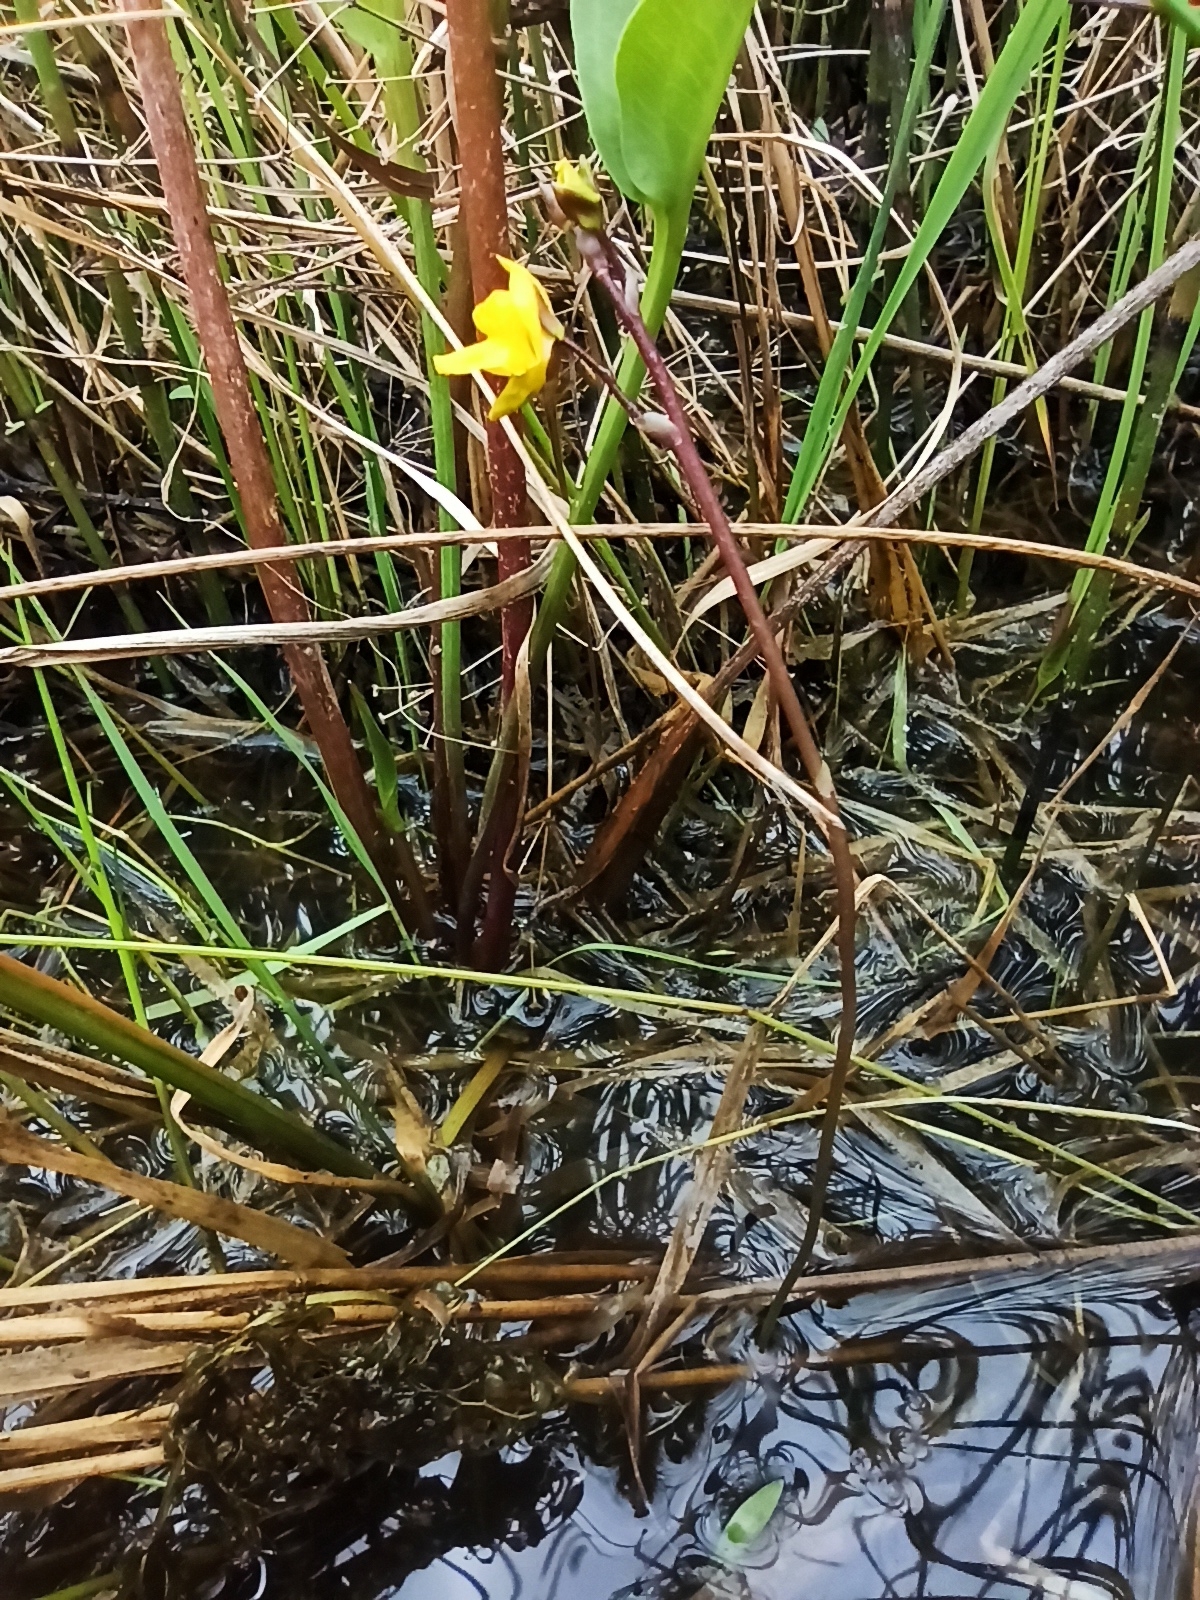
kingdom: Plantae
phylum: Tracheophyta
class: Magnoliopsida
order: Lamiales
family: Lentibulariaceae
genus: Utricularia
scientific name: Utricularia vulgaris
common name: Greater bladderwort
